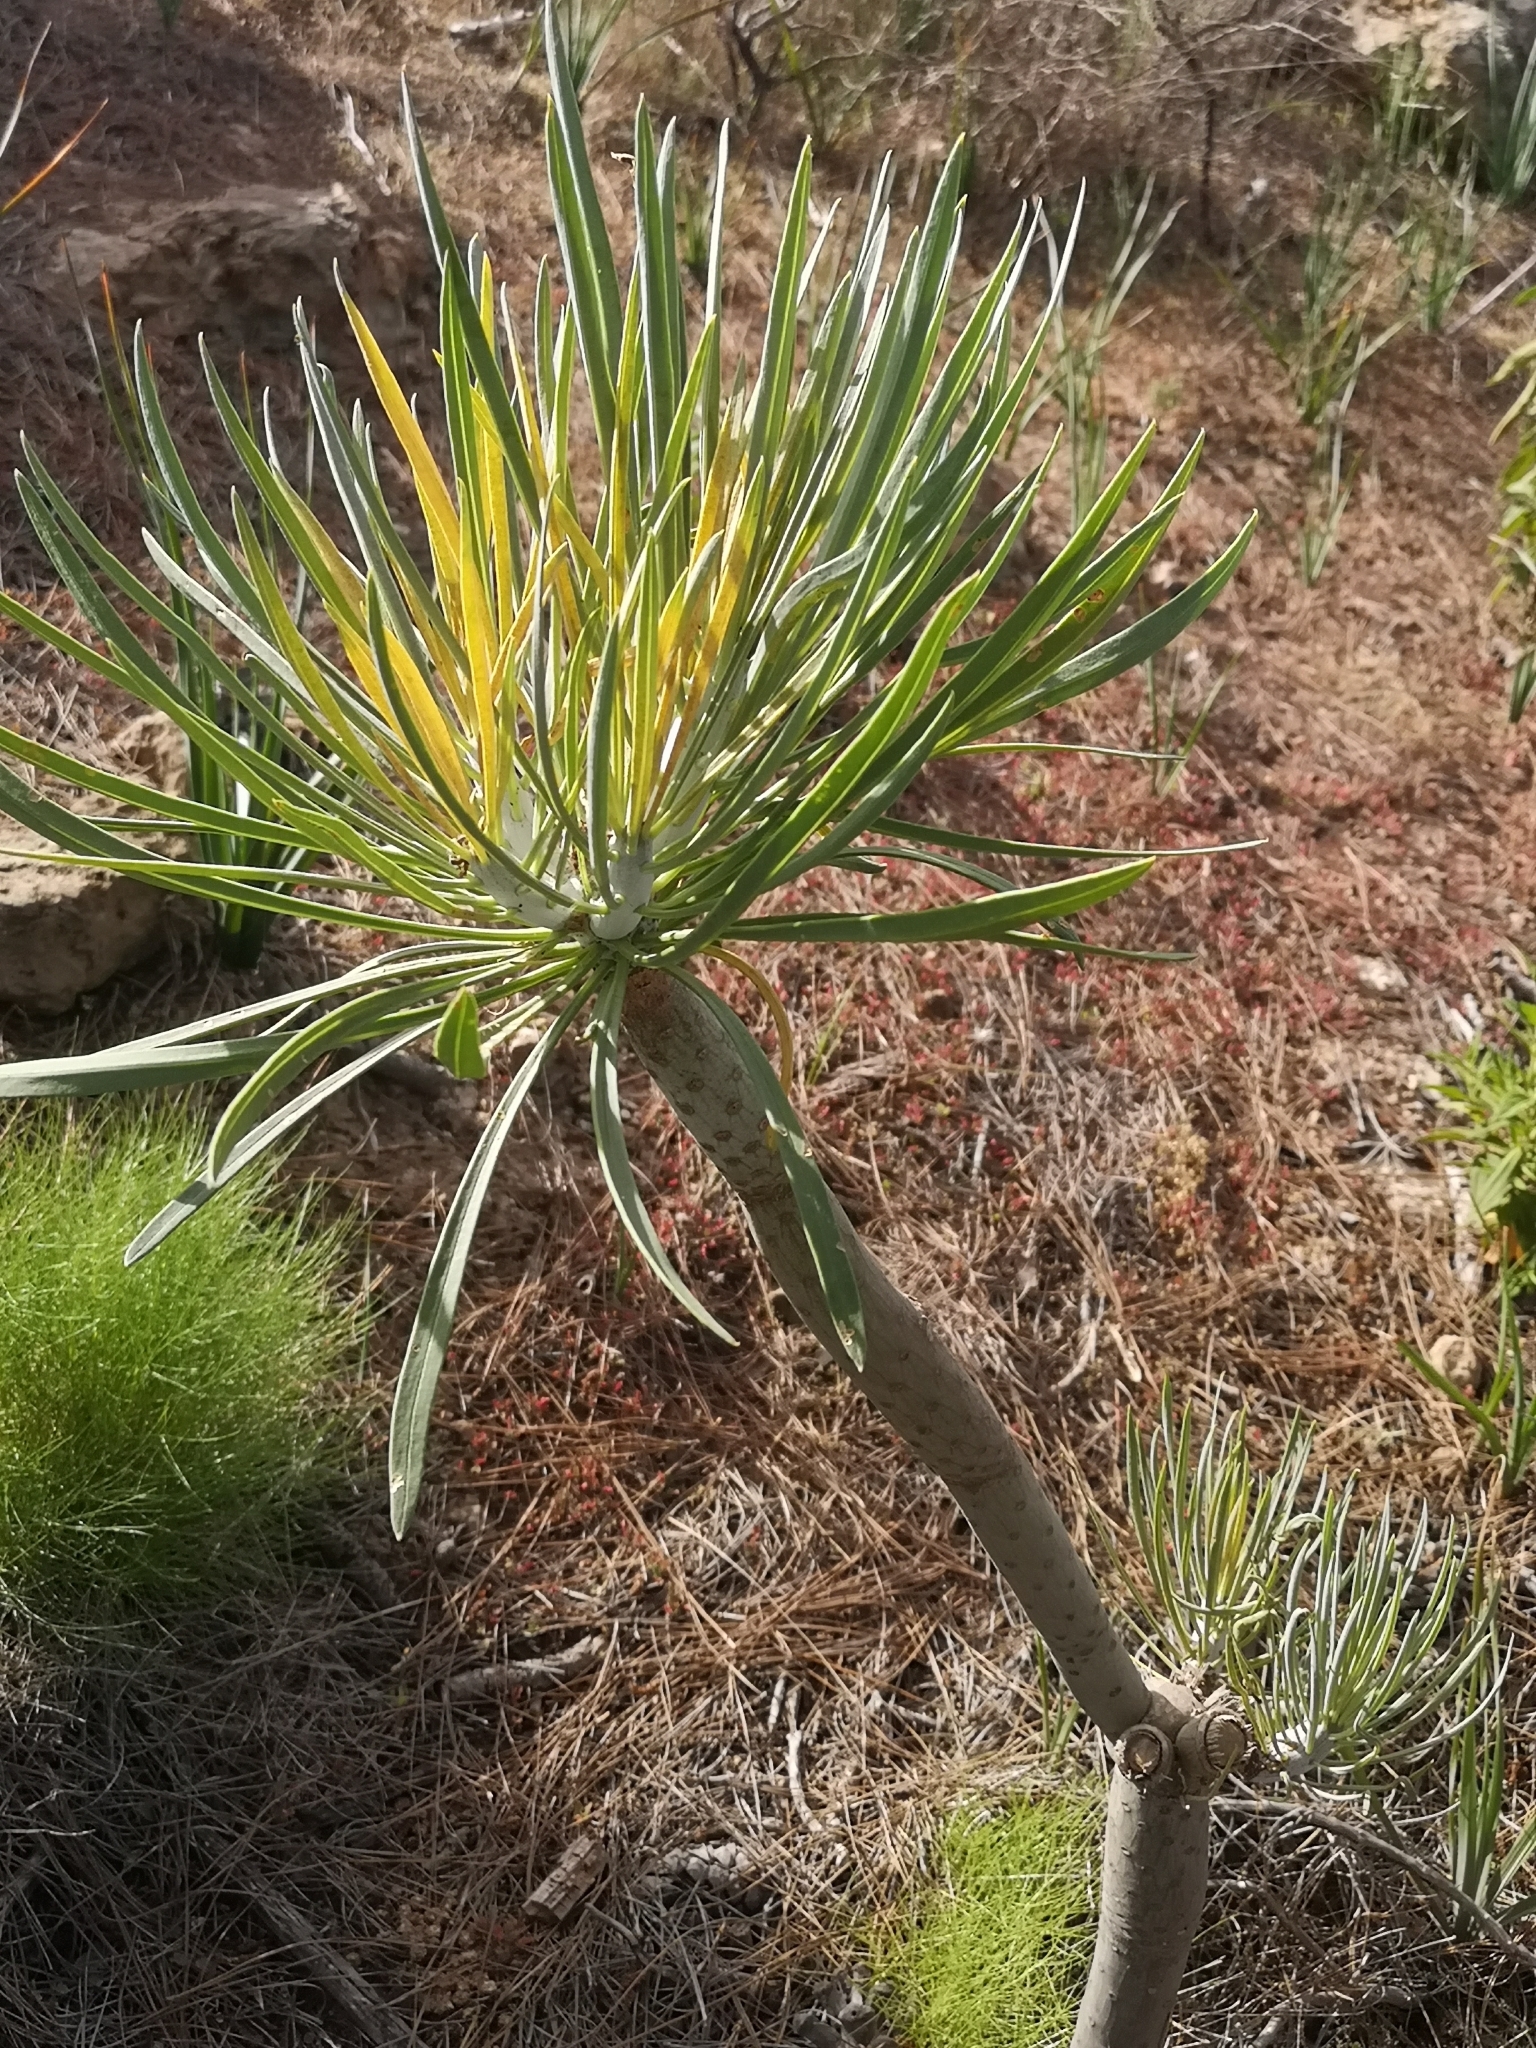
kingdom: Plantae
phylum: Tracheophyta
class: Magnoliopsida
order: Asterales
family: Asteraceae
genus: Kleinia
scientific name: Kleinia neriifolia
